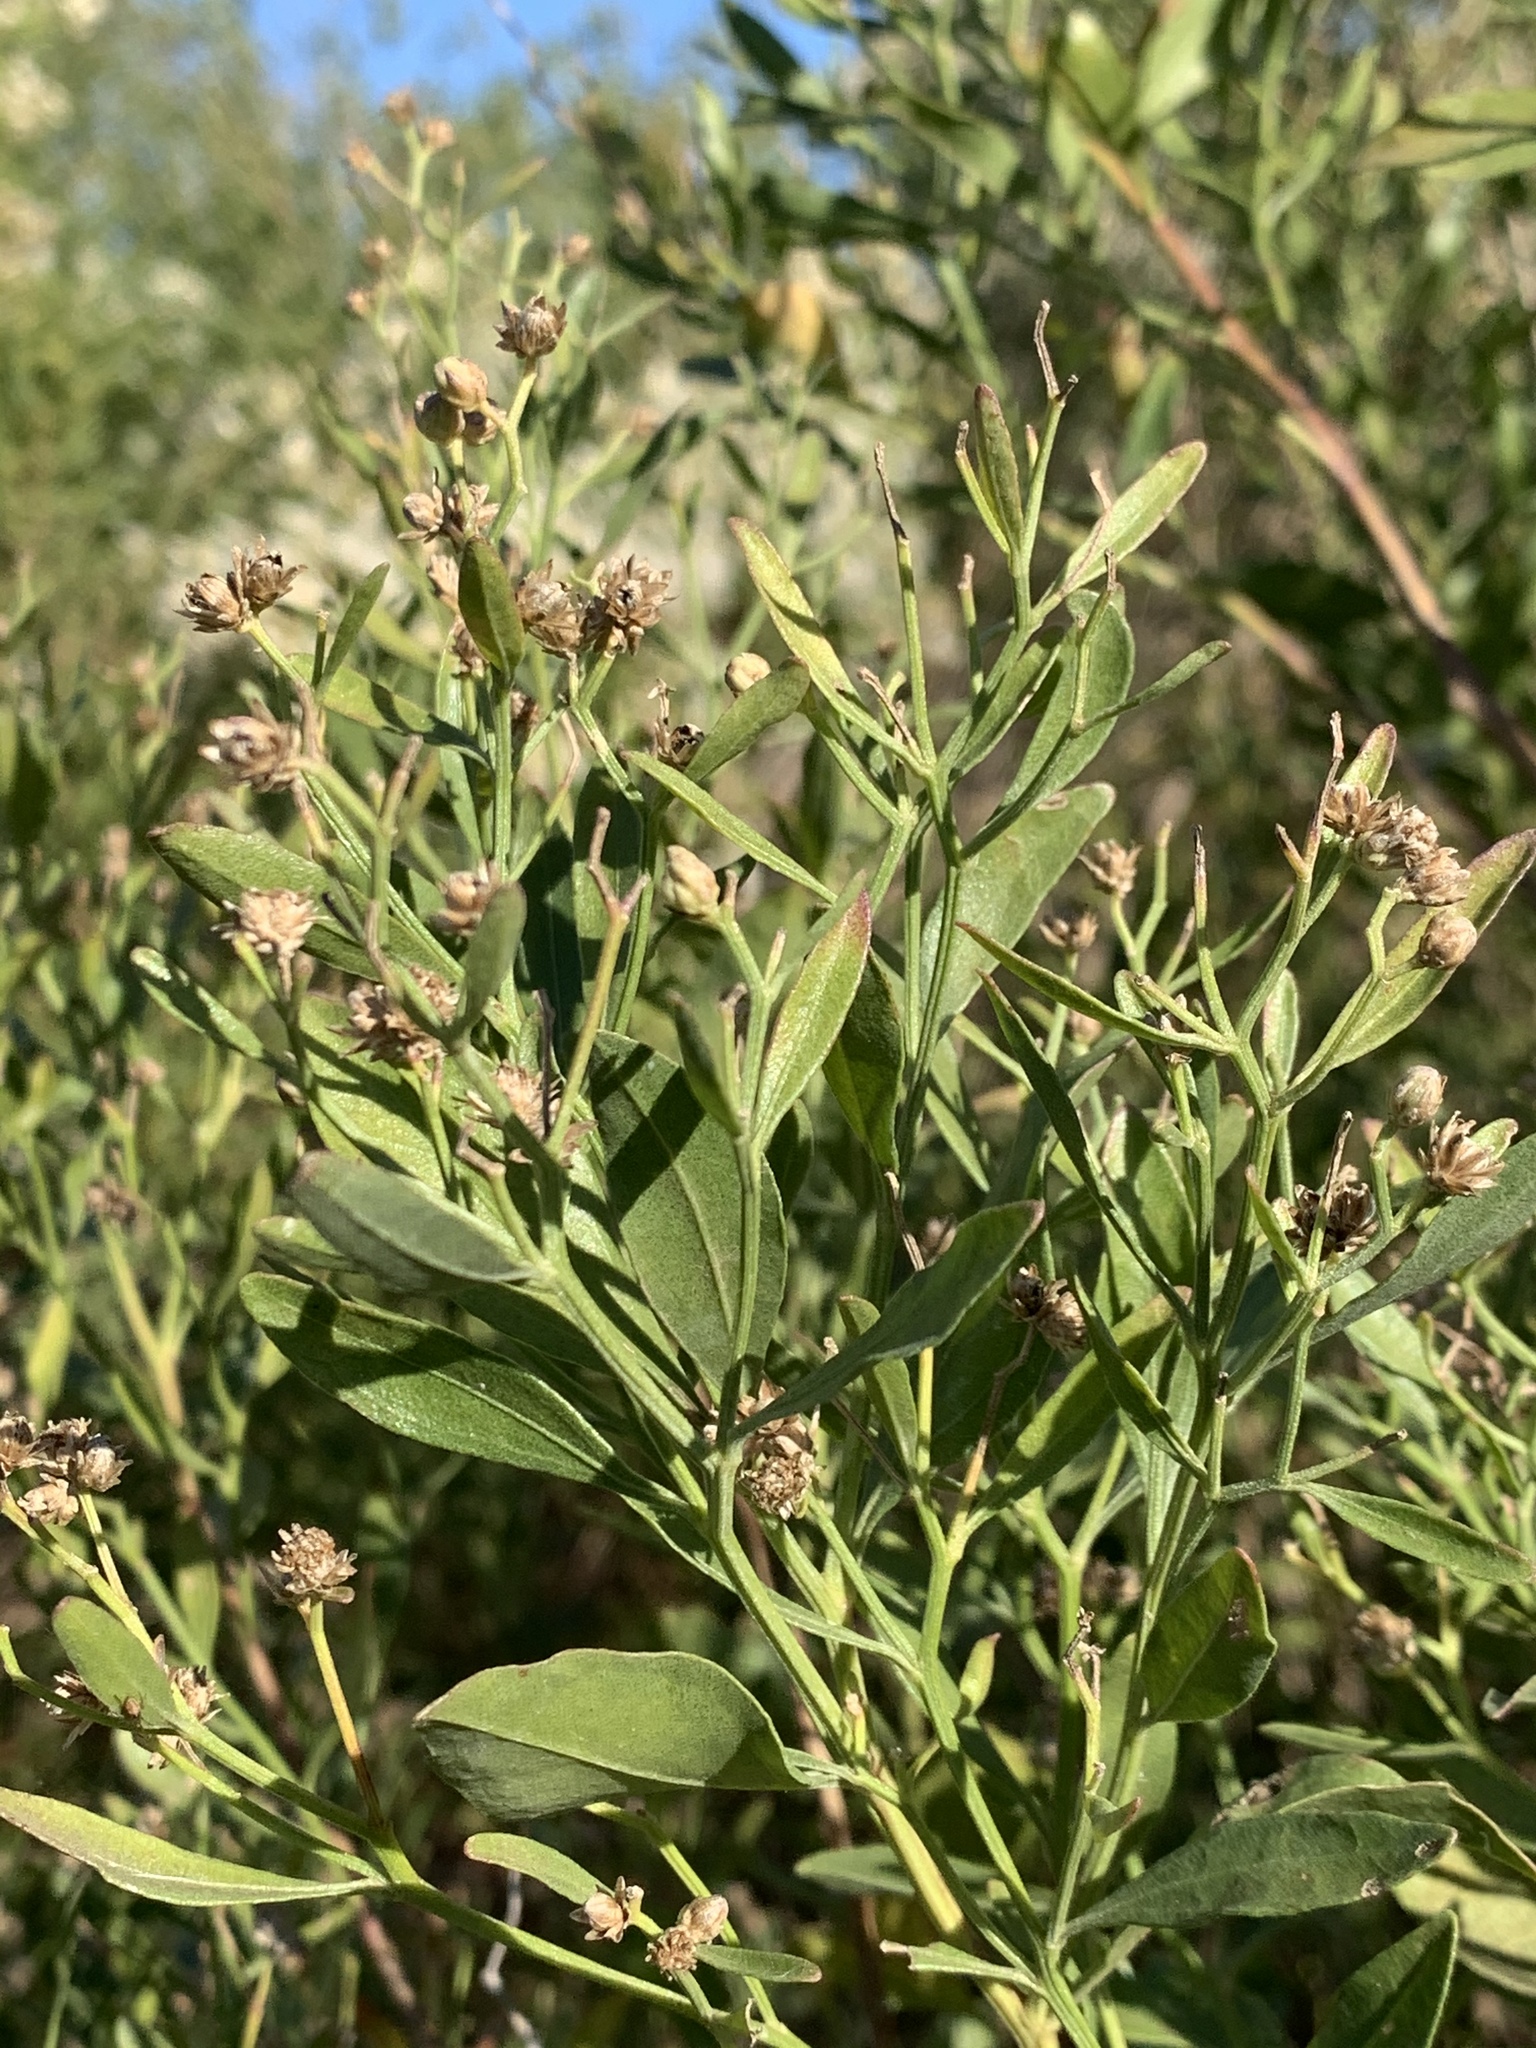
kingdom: Plantae
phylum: Tracheophyta
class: Magnoliopsida
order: Asterales
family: Asteraceae
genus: Baccharis
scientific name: Baccharis halimifolia
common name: Eastern baccharis
